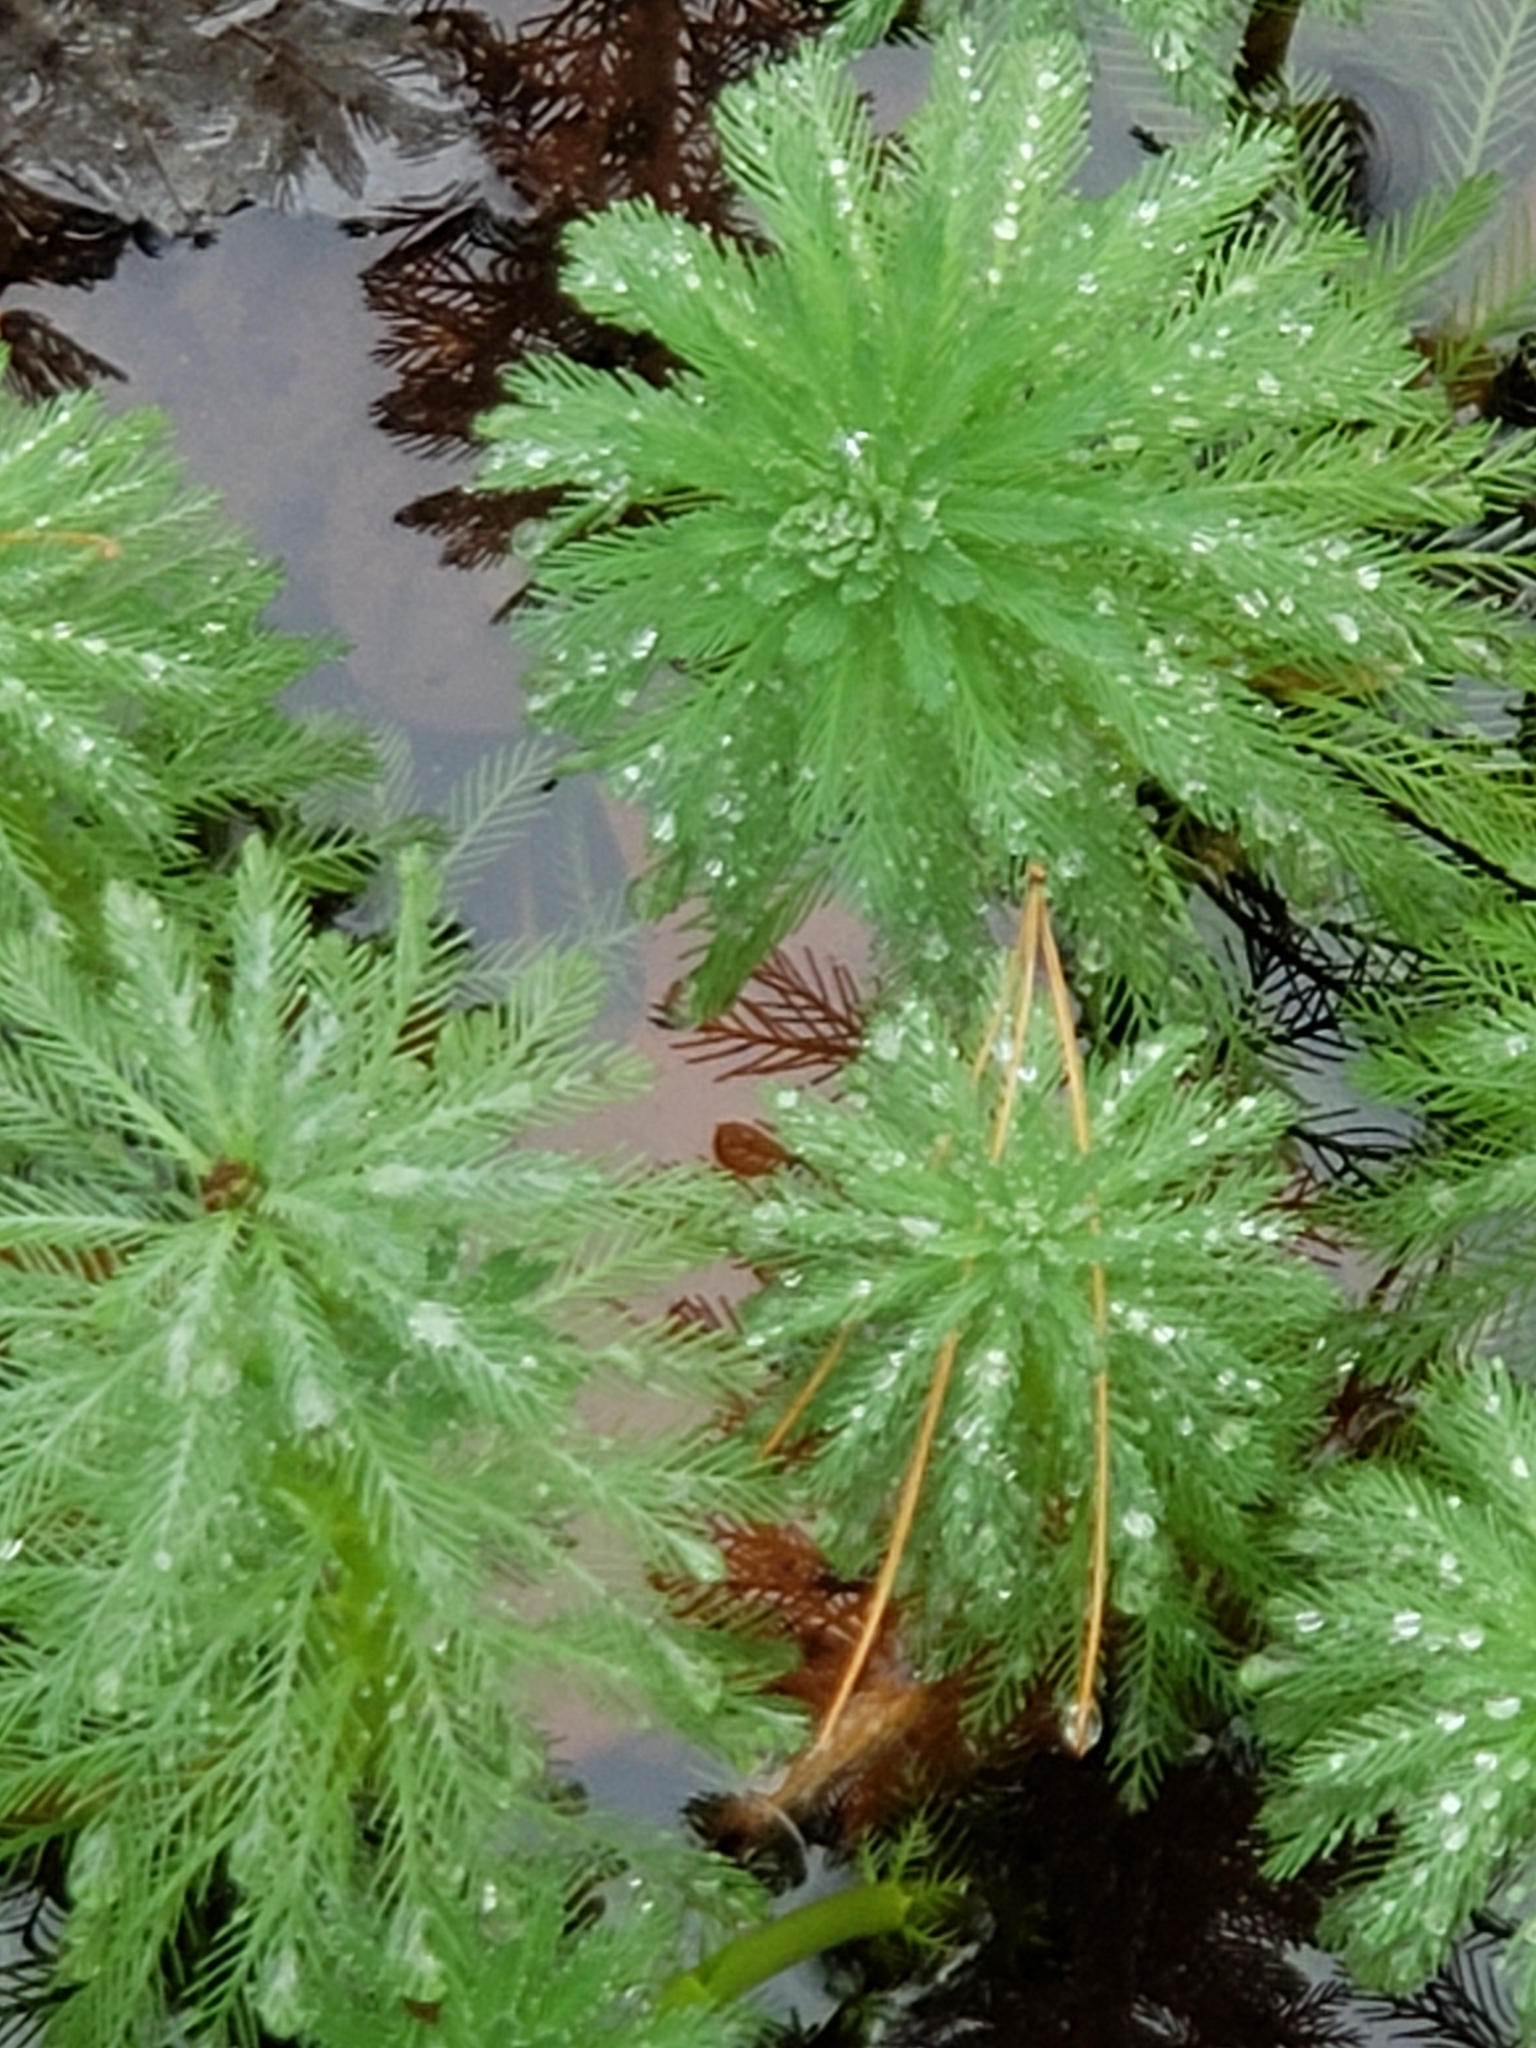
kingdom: Plantae
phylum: Tracheophyta
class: Magnoliopsida
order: Saxifragales
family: Haloragaceae
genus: Myriophyllum
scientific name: Myriophyllum aquaticum
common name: Parrot's feather
